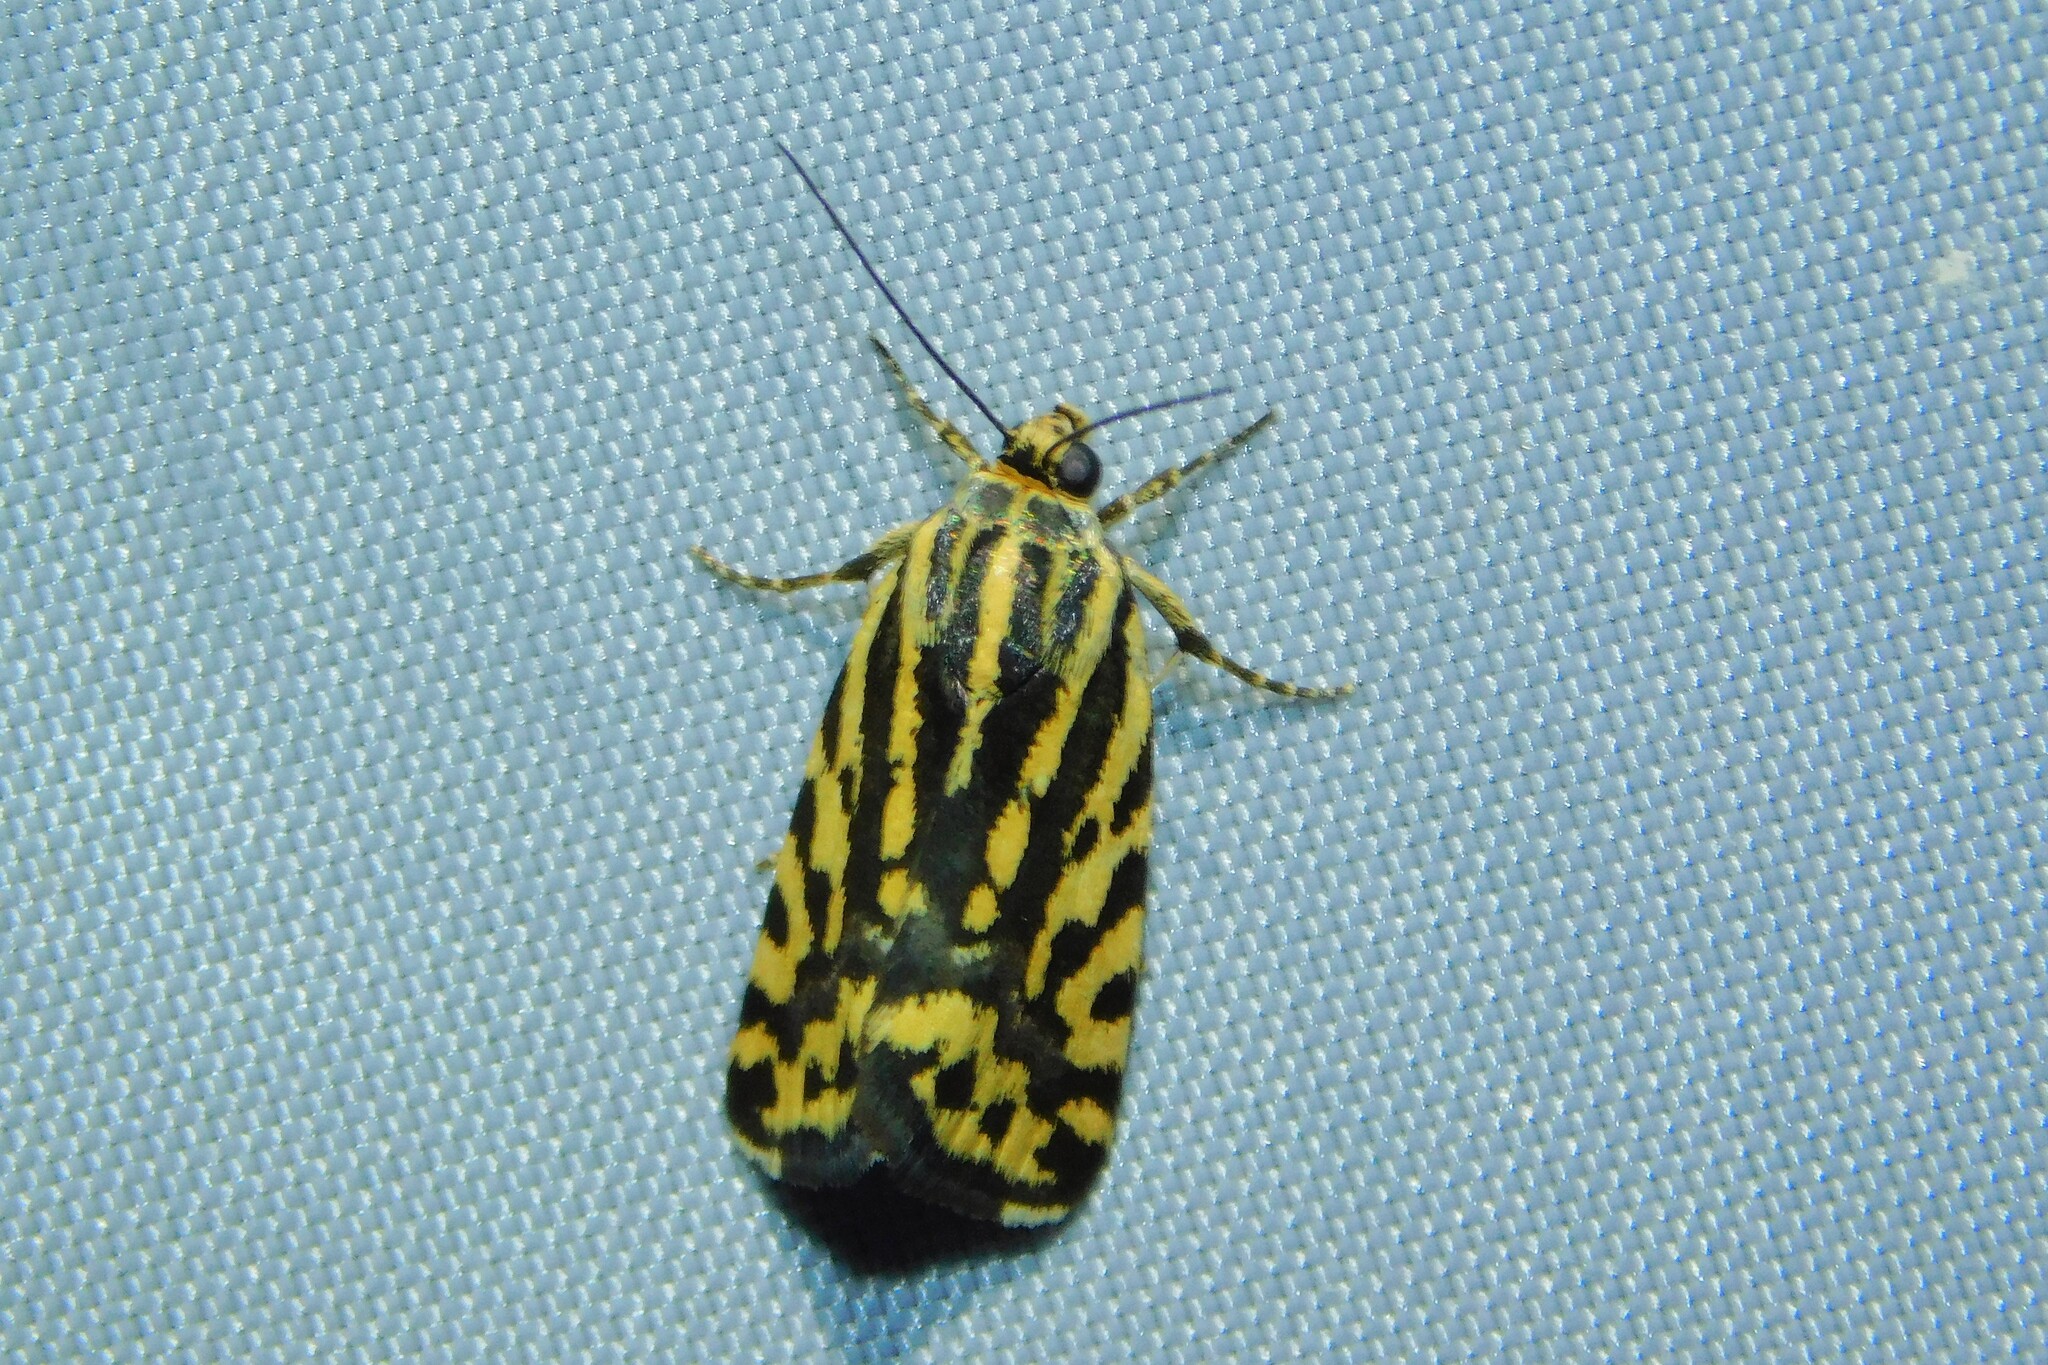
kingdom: Animalia
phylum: Arthropoda
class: Insecta
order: Lepidoptera
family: Noctuidae
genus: Acontia
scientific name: Acontia trabealis
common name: Spotted sulphur
